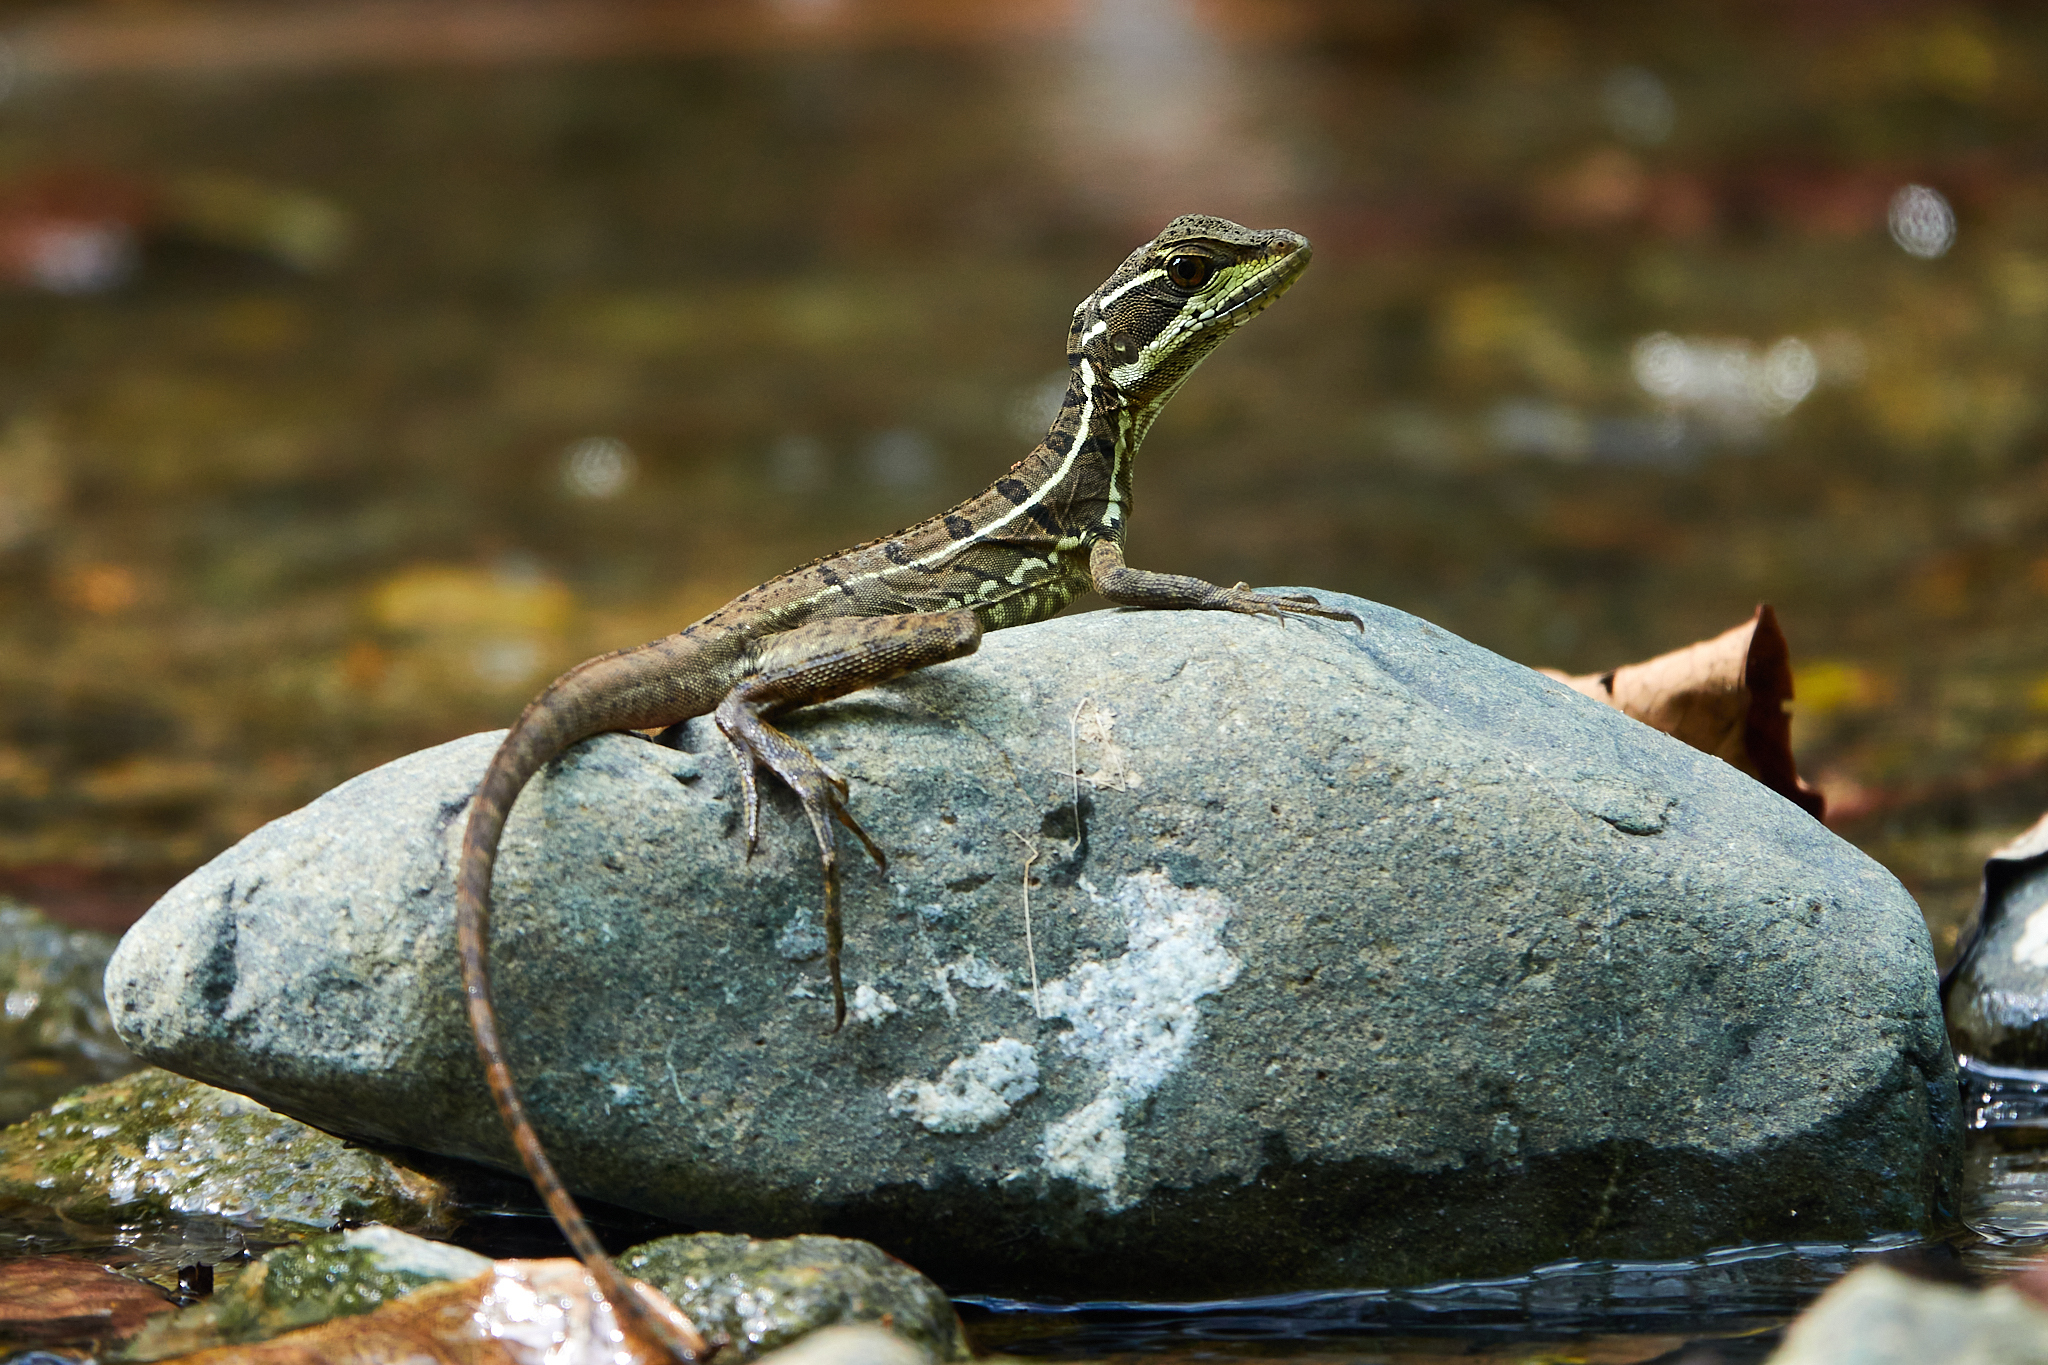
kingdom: Animalia
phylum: Chordata
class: Squamata
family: Corytophanidae
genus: Basiliscus
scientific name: Basiliscus basiliscus
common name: Common basilisk
